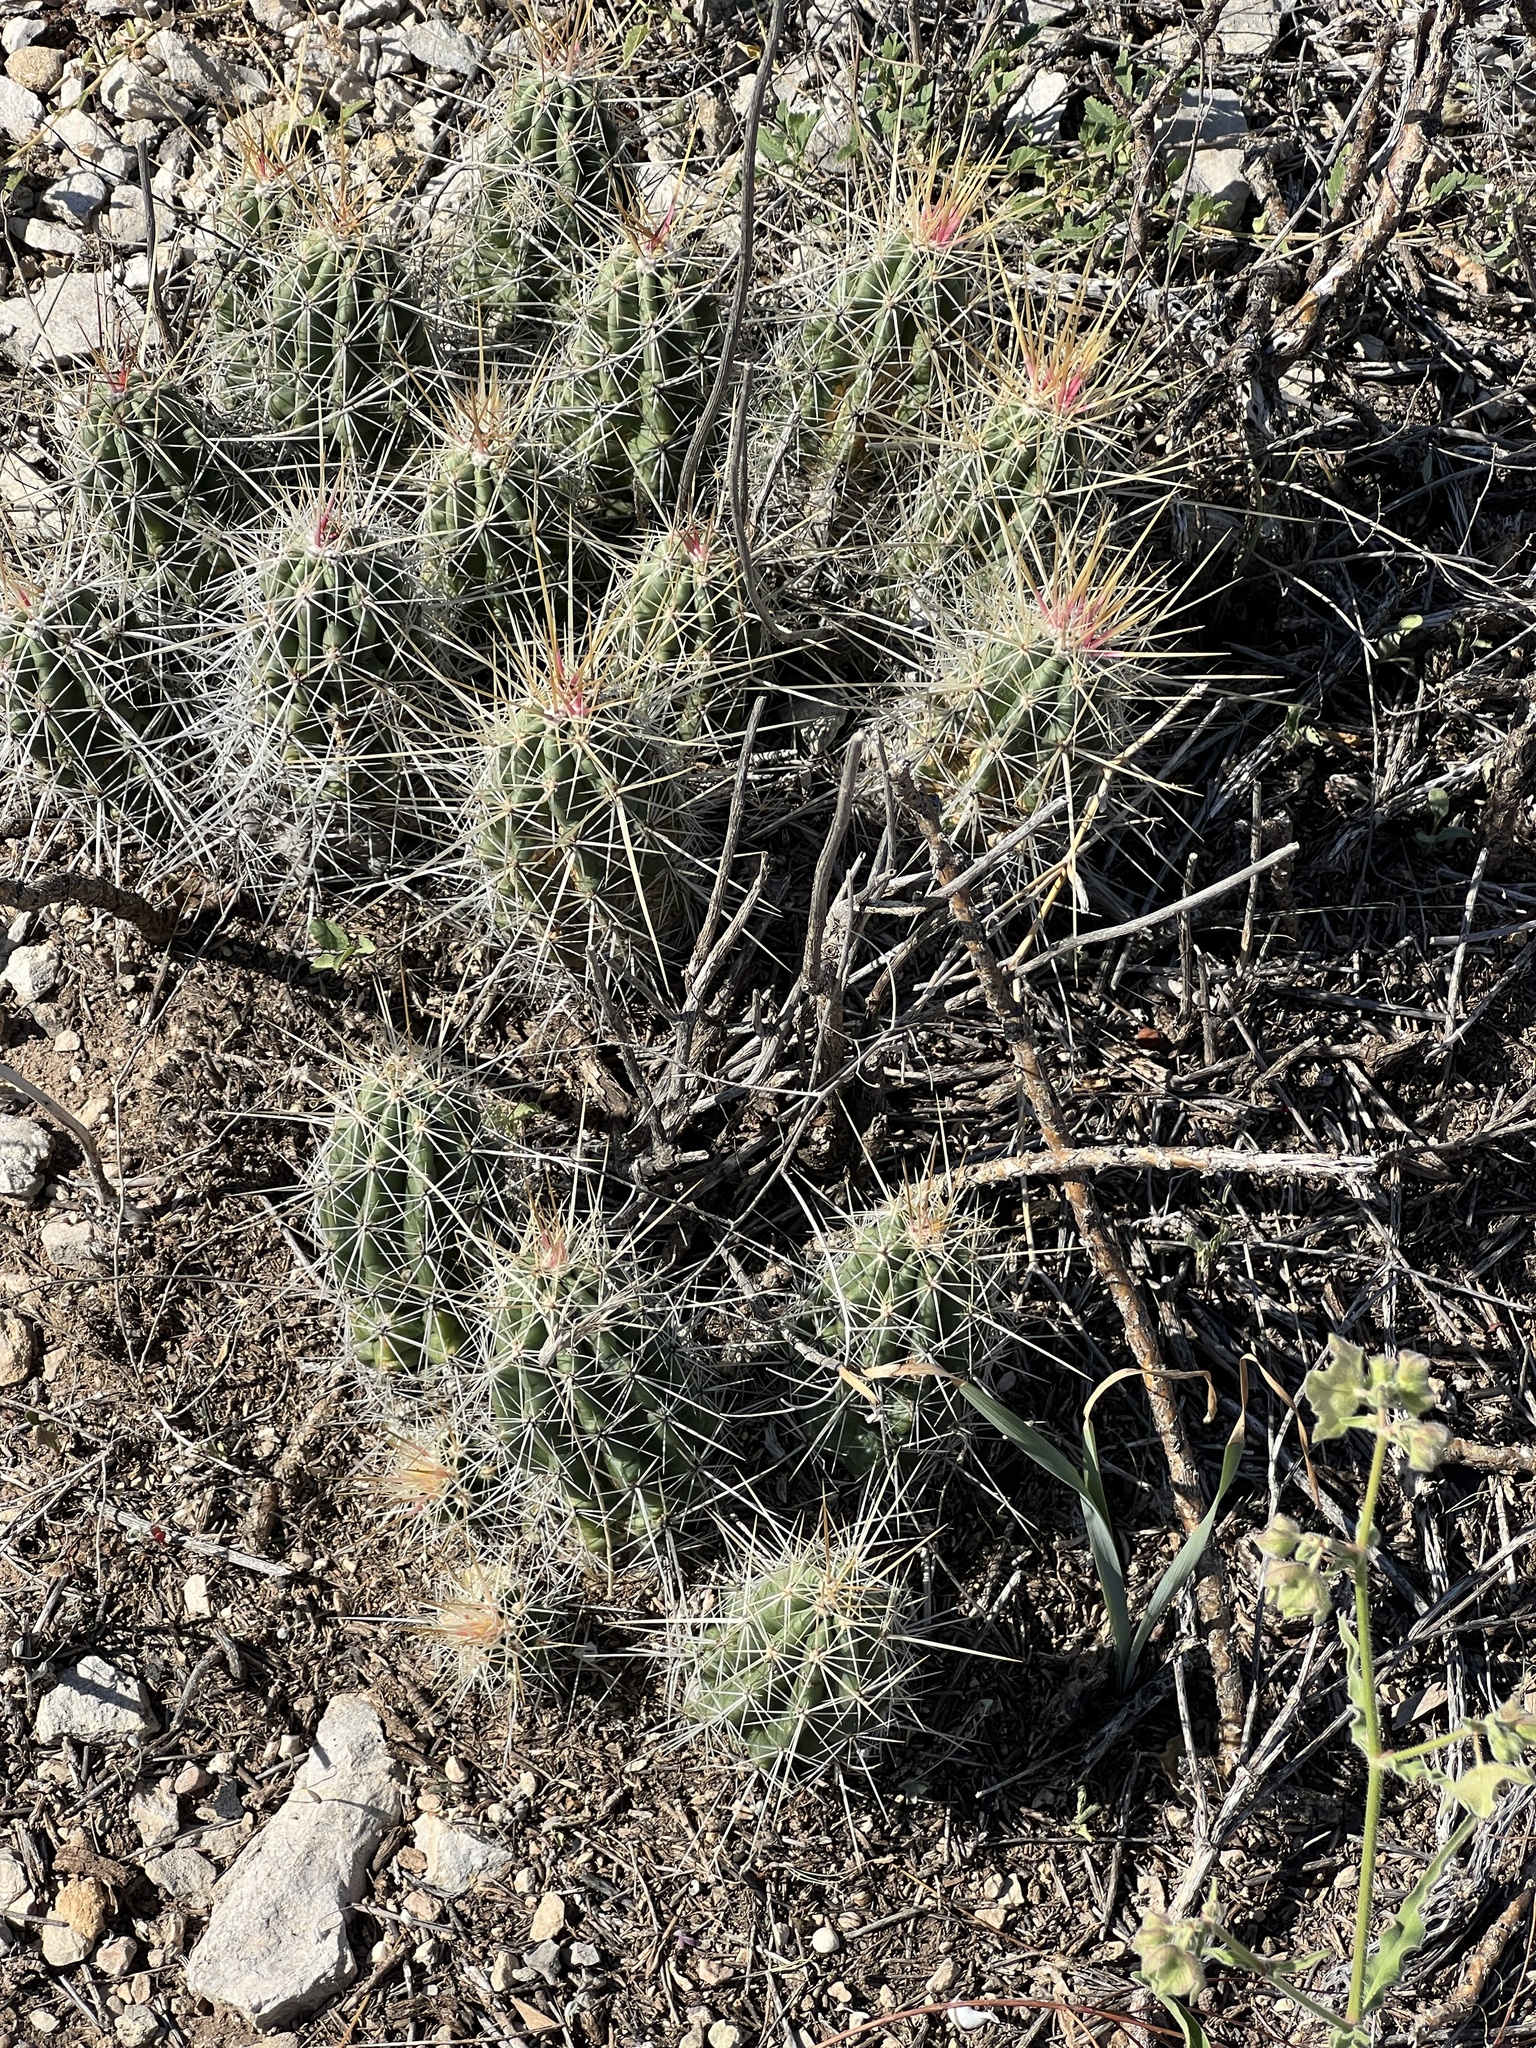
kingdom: Plantae
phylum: Tracheophyta
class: Magnoliopsida
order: Caryophyllales
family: Cactaceae
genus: Echinocereus
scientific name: Echinocereus enneacanthus
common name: Pitaya
